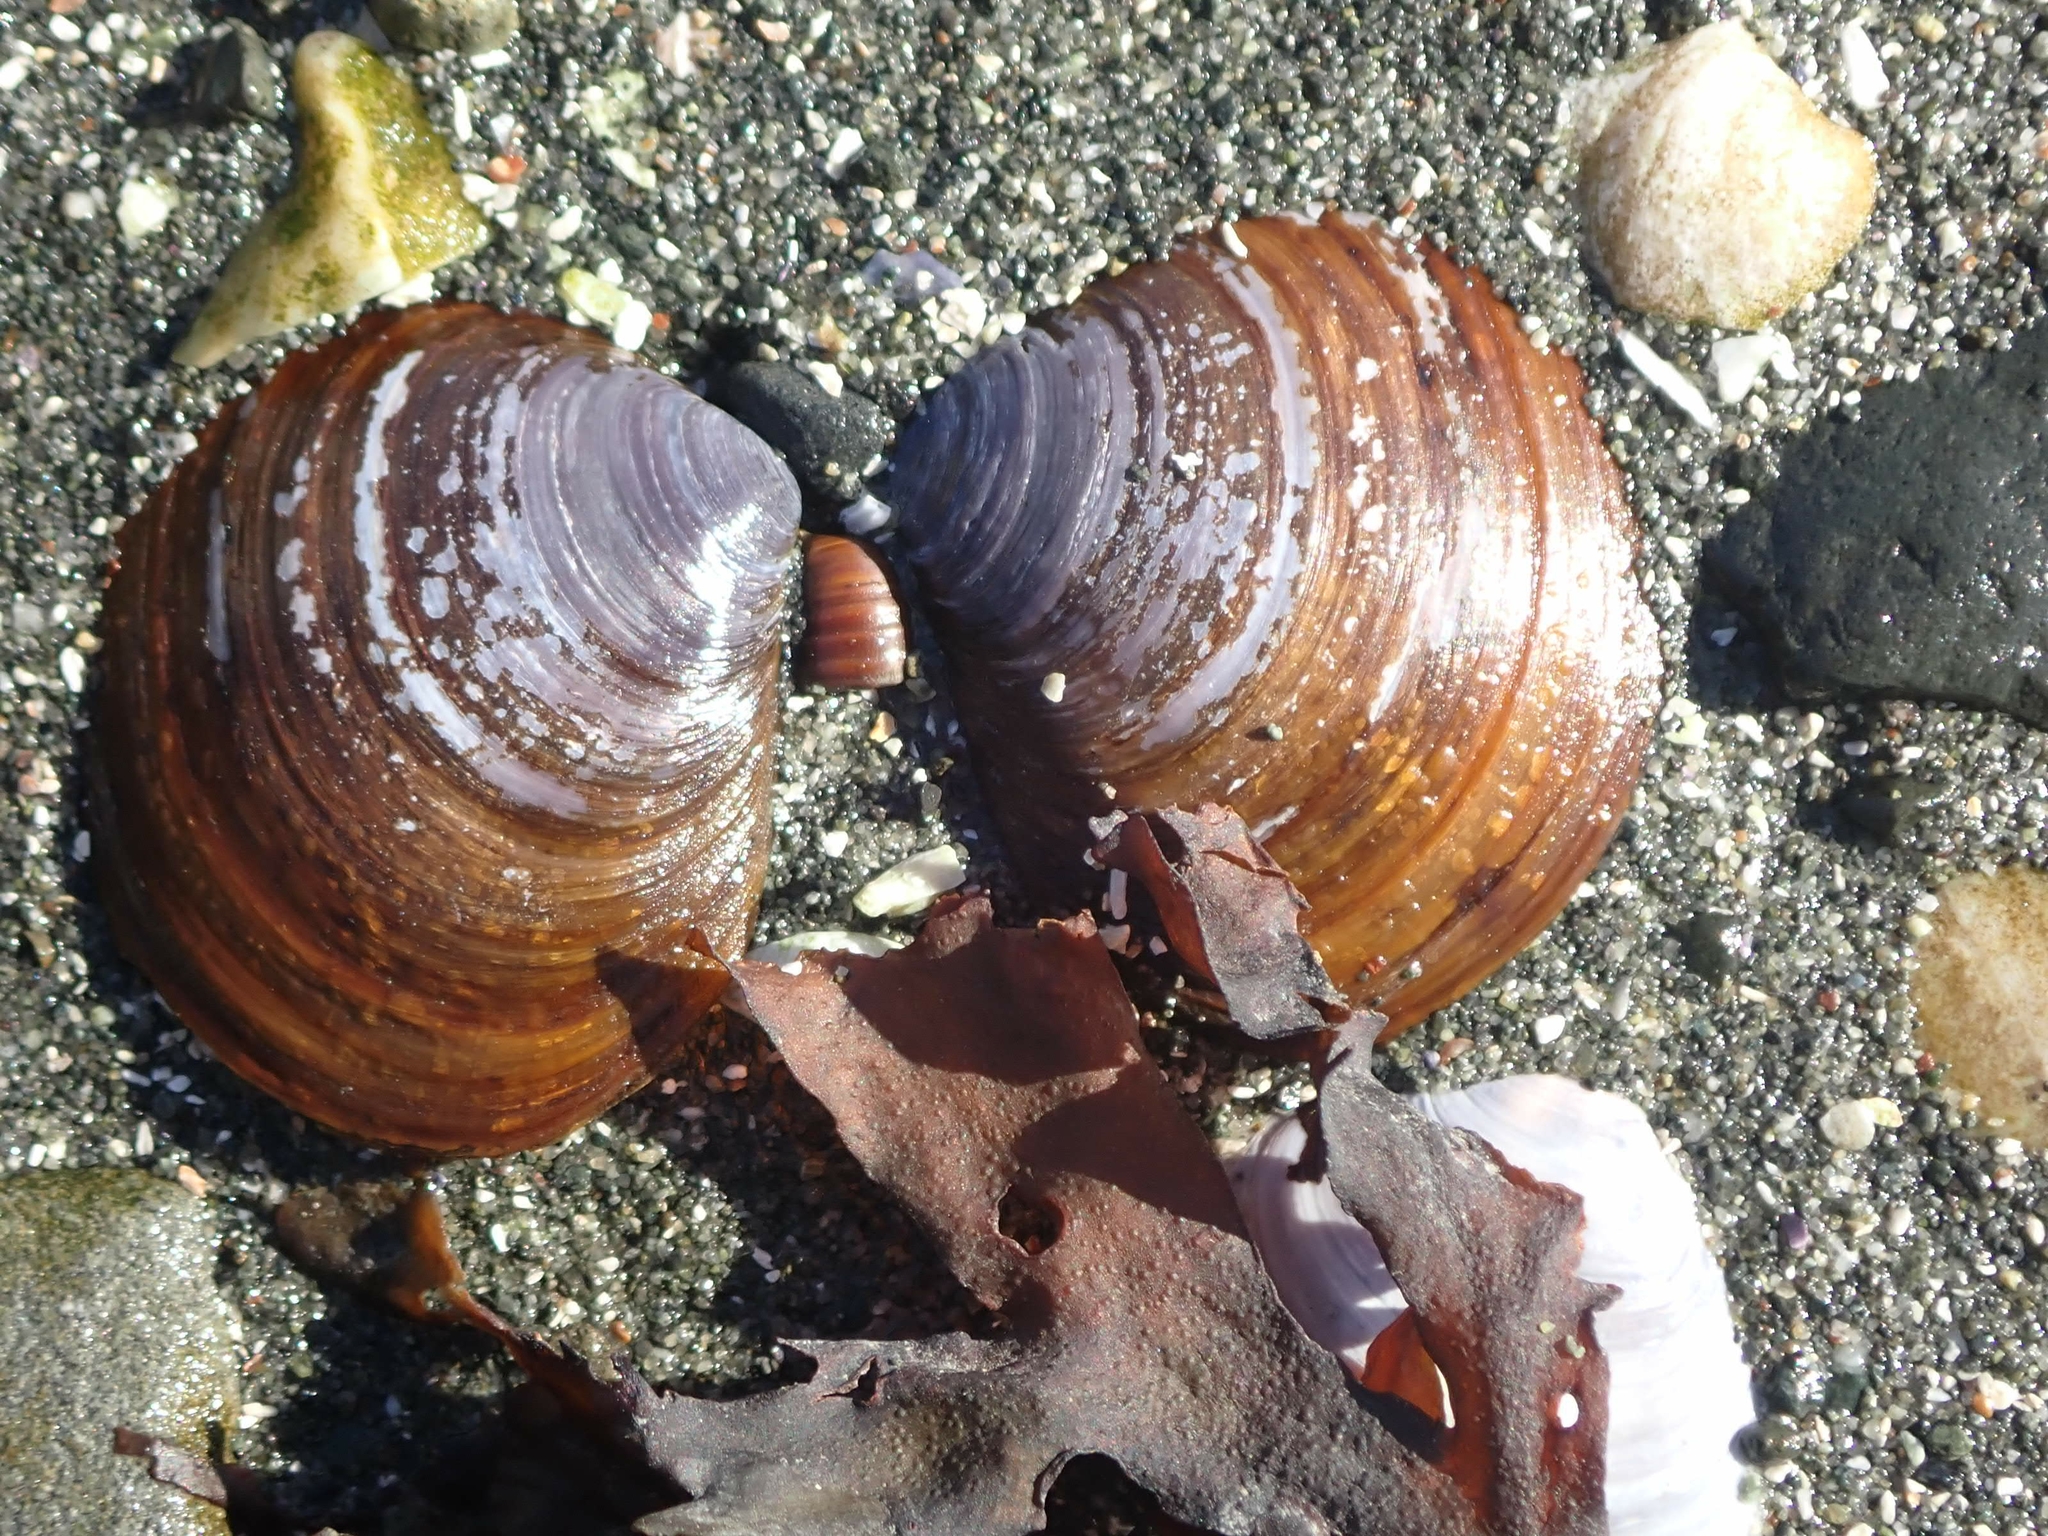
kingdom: Animalia
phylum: Mollusca
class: Bivalvia
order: Cardiida
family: Psammobiidae
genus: Nuttallia
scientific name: Nuttallia obscurata
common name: Purple mahogany-clam
